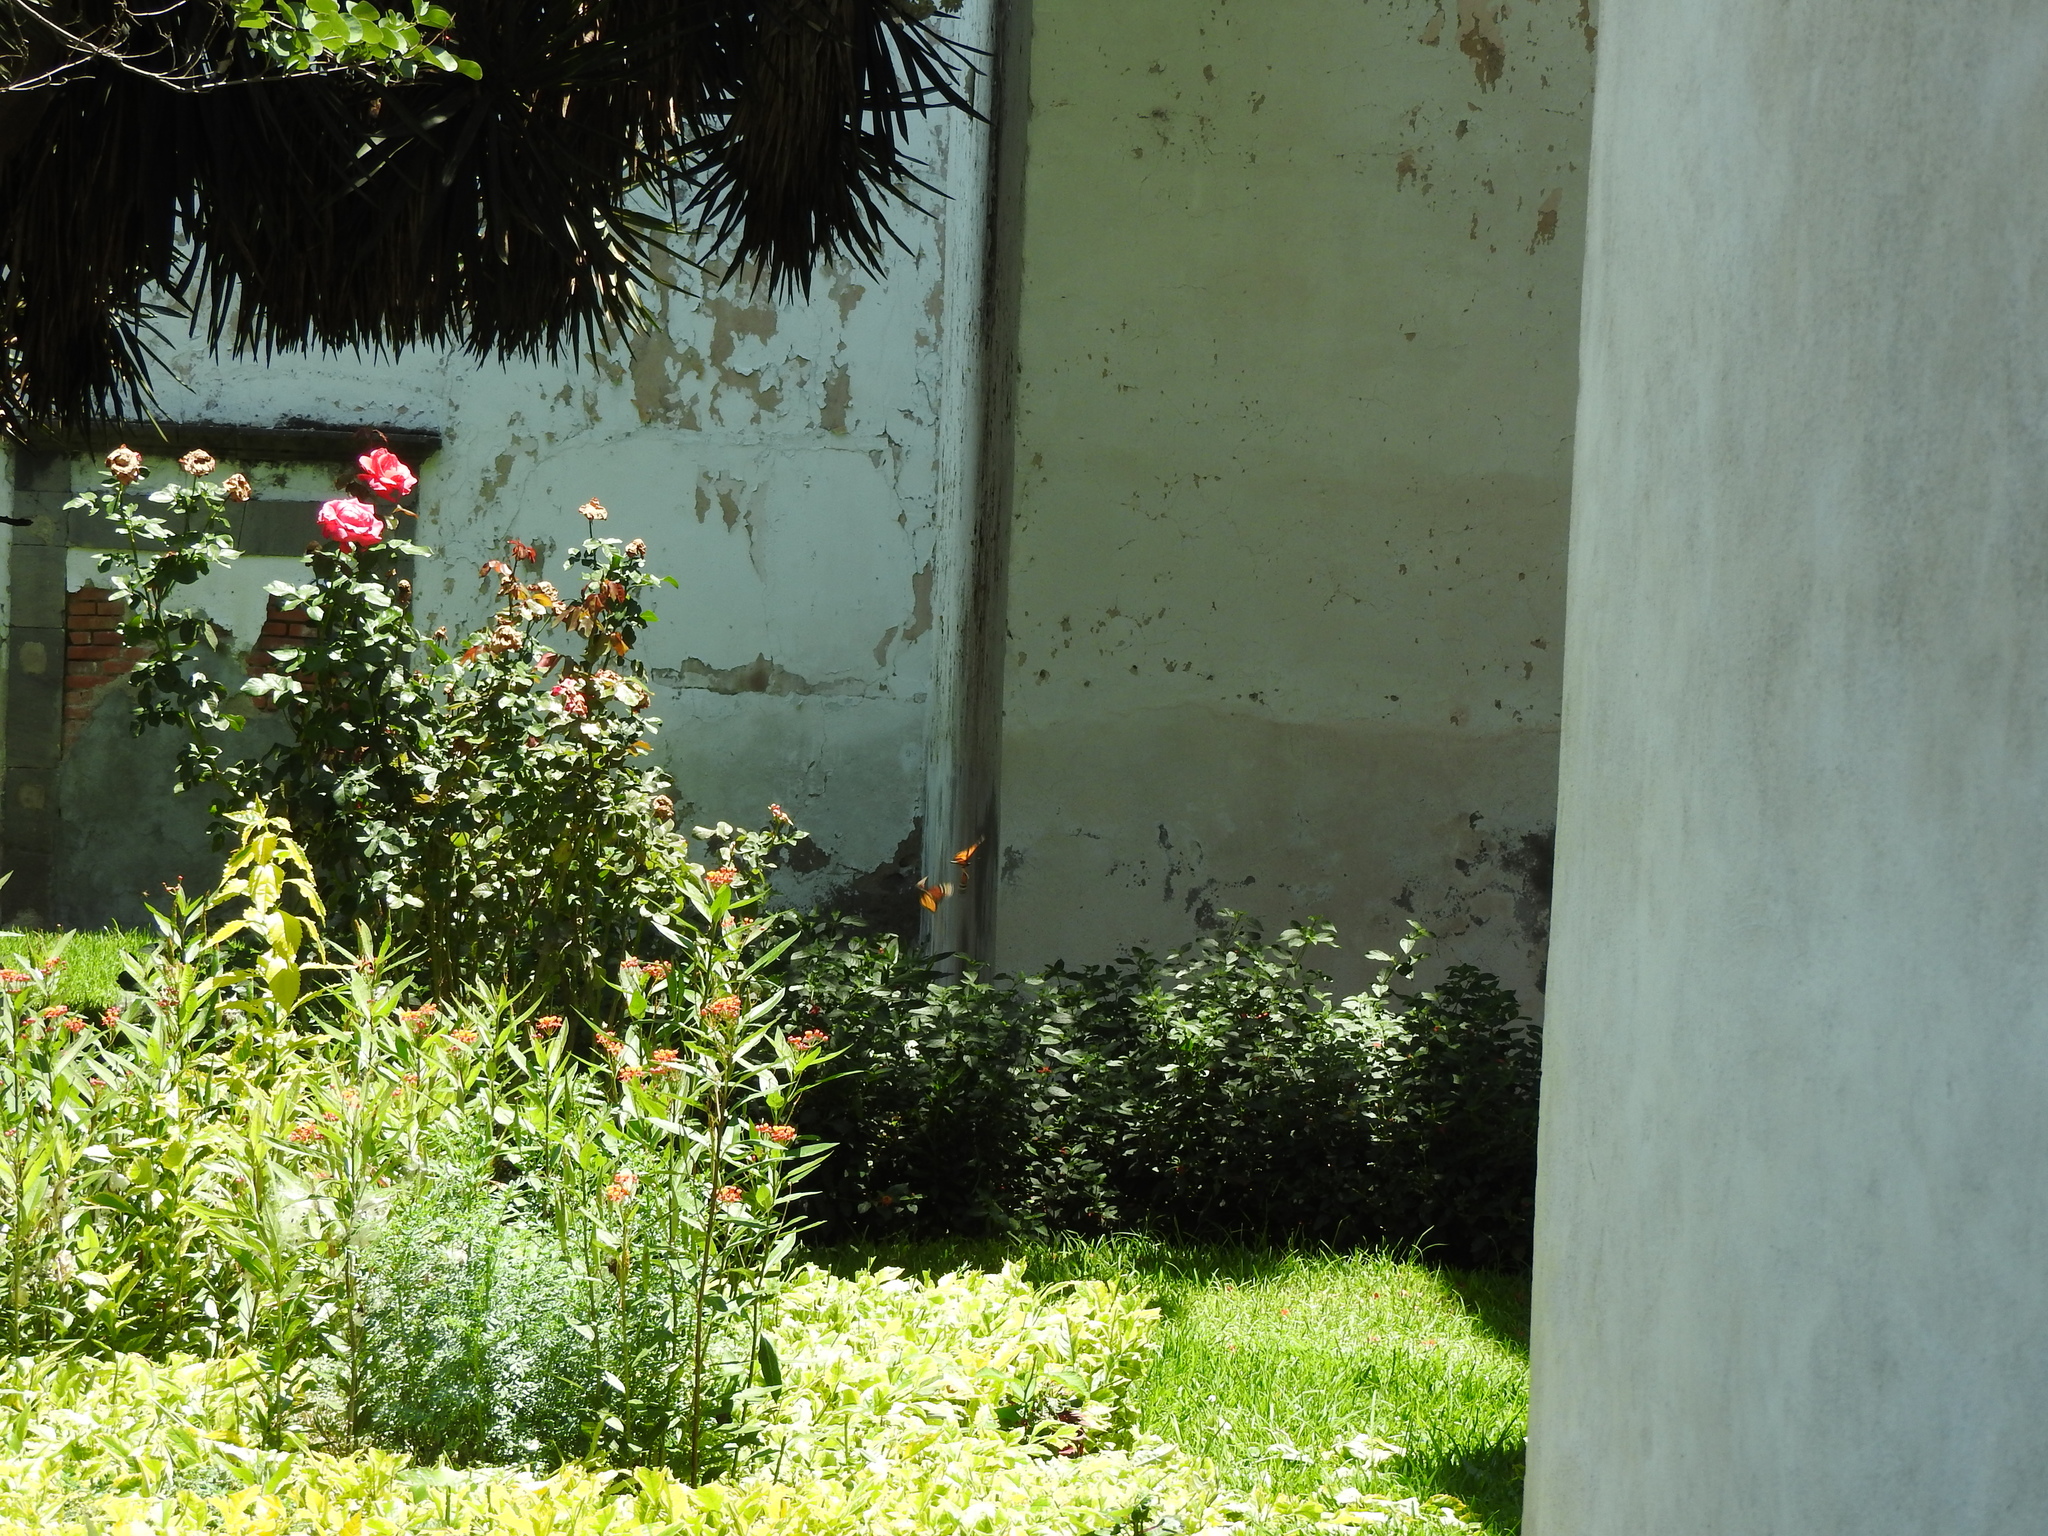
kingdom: Animalia
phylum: Arthropoda
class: Insecta
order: Lepidoptera
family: Nymphalidae
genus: Danaus
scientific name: Danaus plexippus
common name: Monarch
